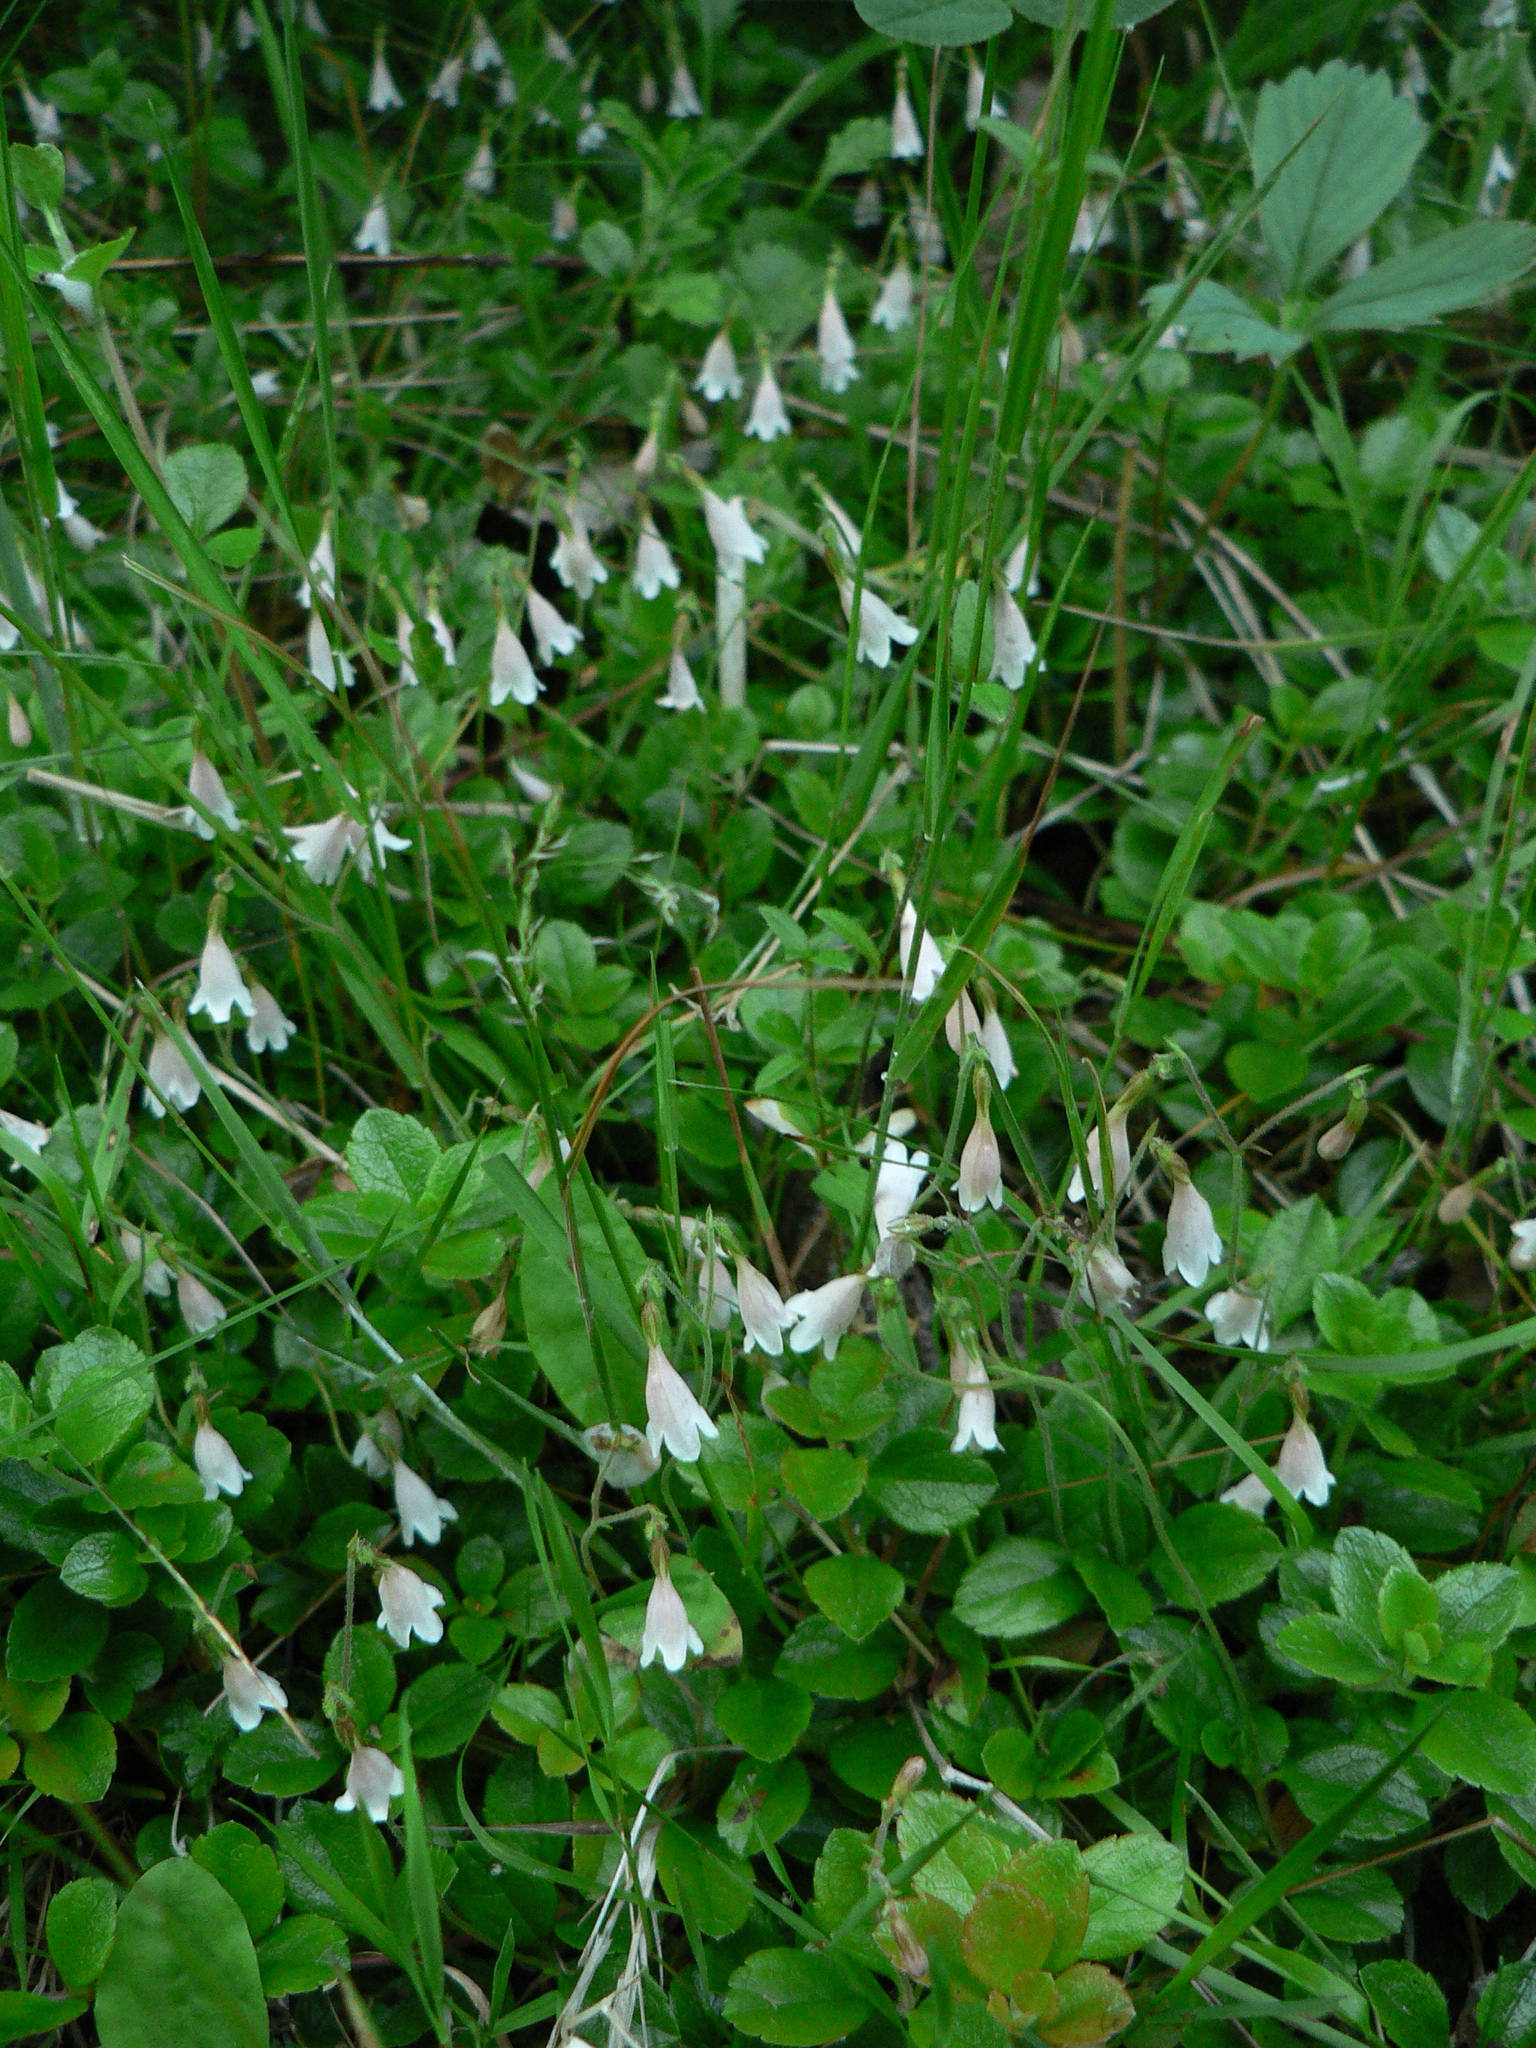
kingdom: Plantae
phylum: Tracheophyta
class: Magnoliopsida
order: Dipsacales
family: Caprifoliaceae
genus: Linnaea
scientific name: Linnaea borealis
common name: Twinflower
